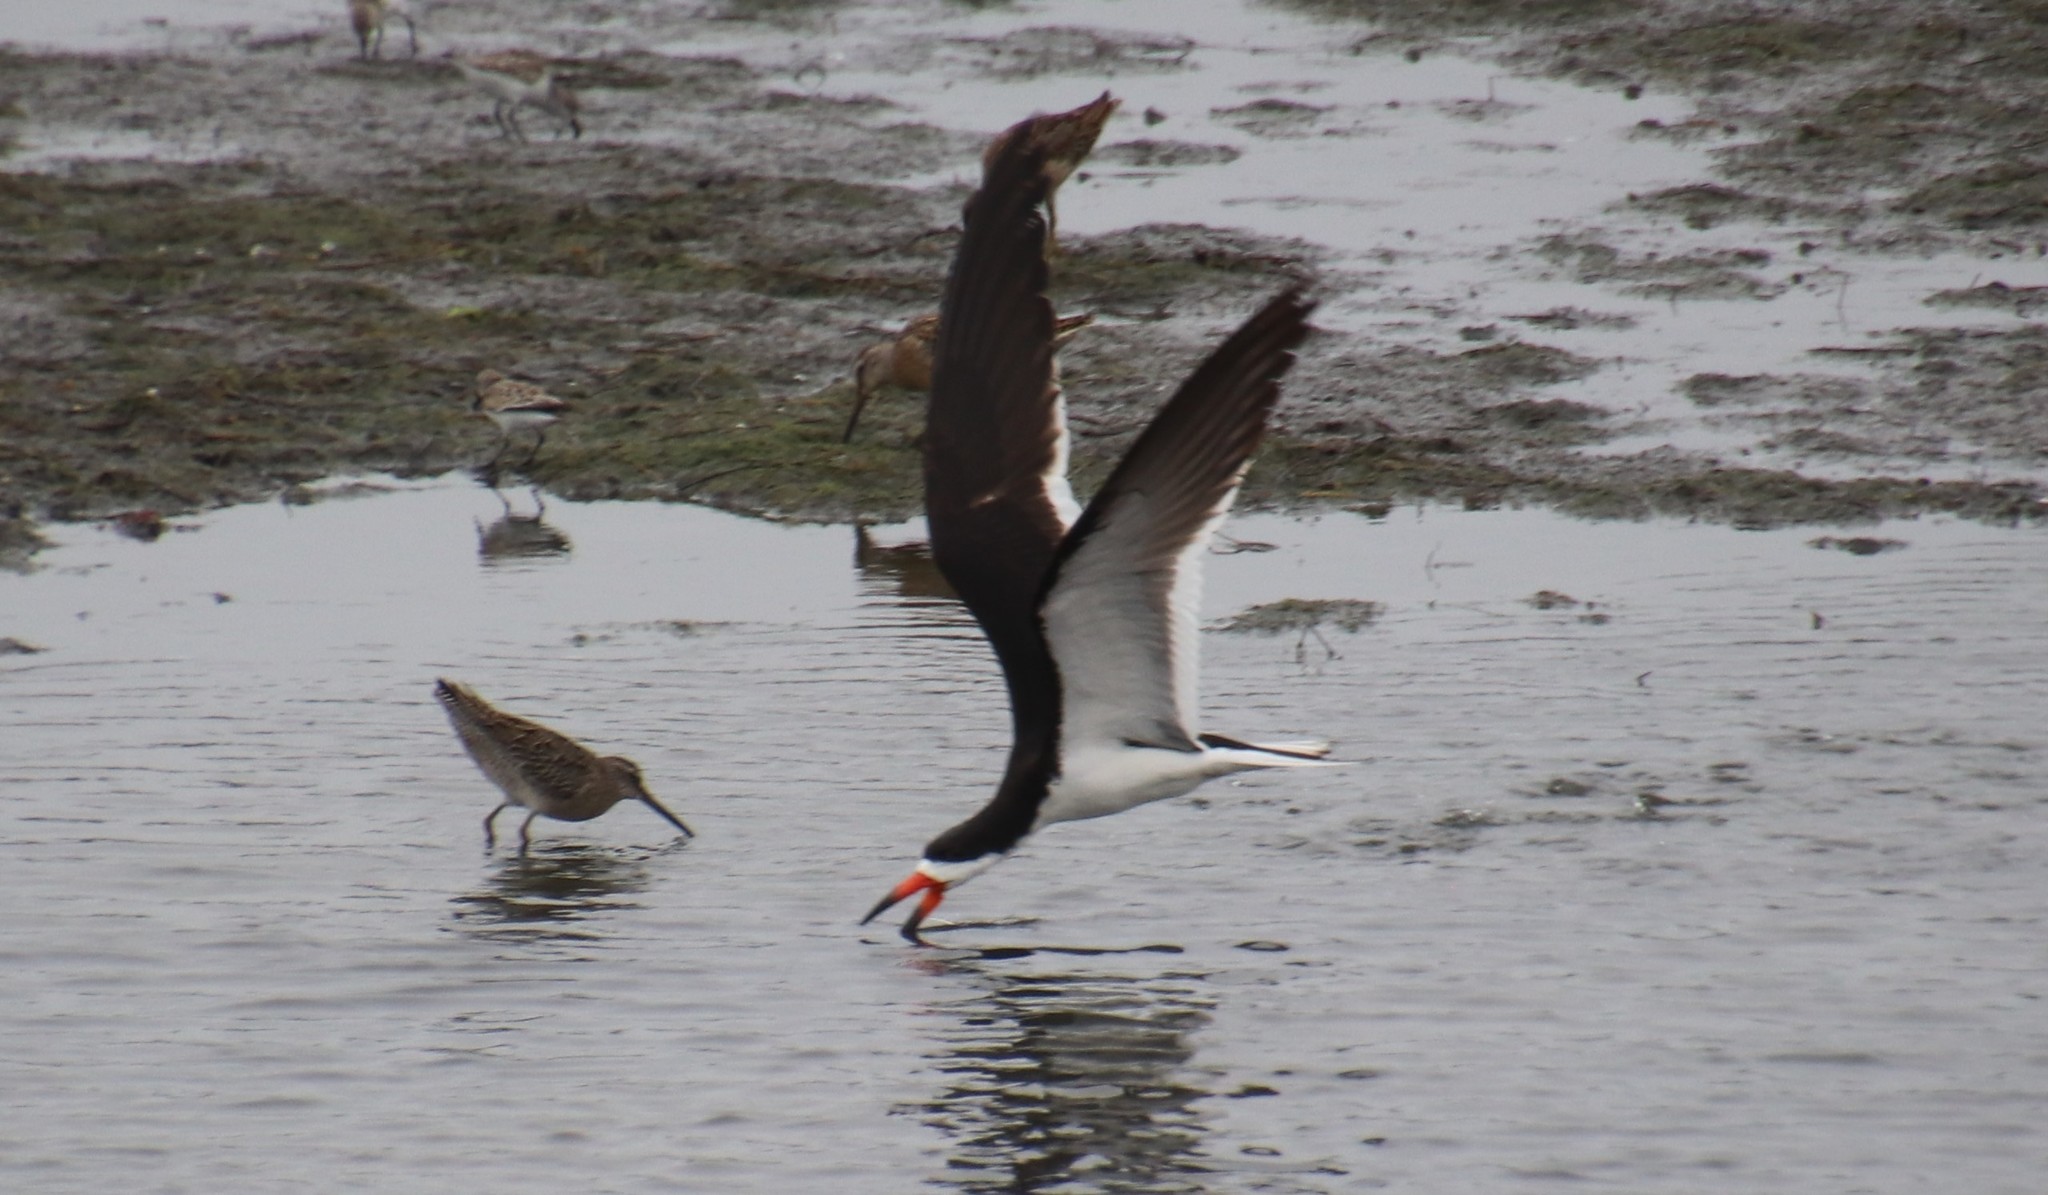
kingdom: Animalia
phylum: Chordata
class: Aves
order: Charadriiformes
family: Laridae
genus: Rynchops
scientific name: Rynchops niger
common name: Black skimmer
